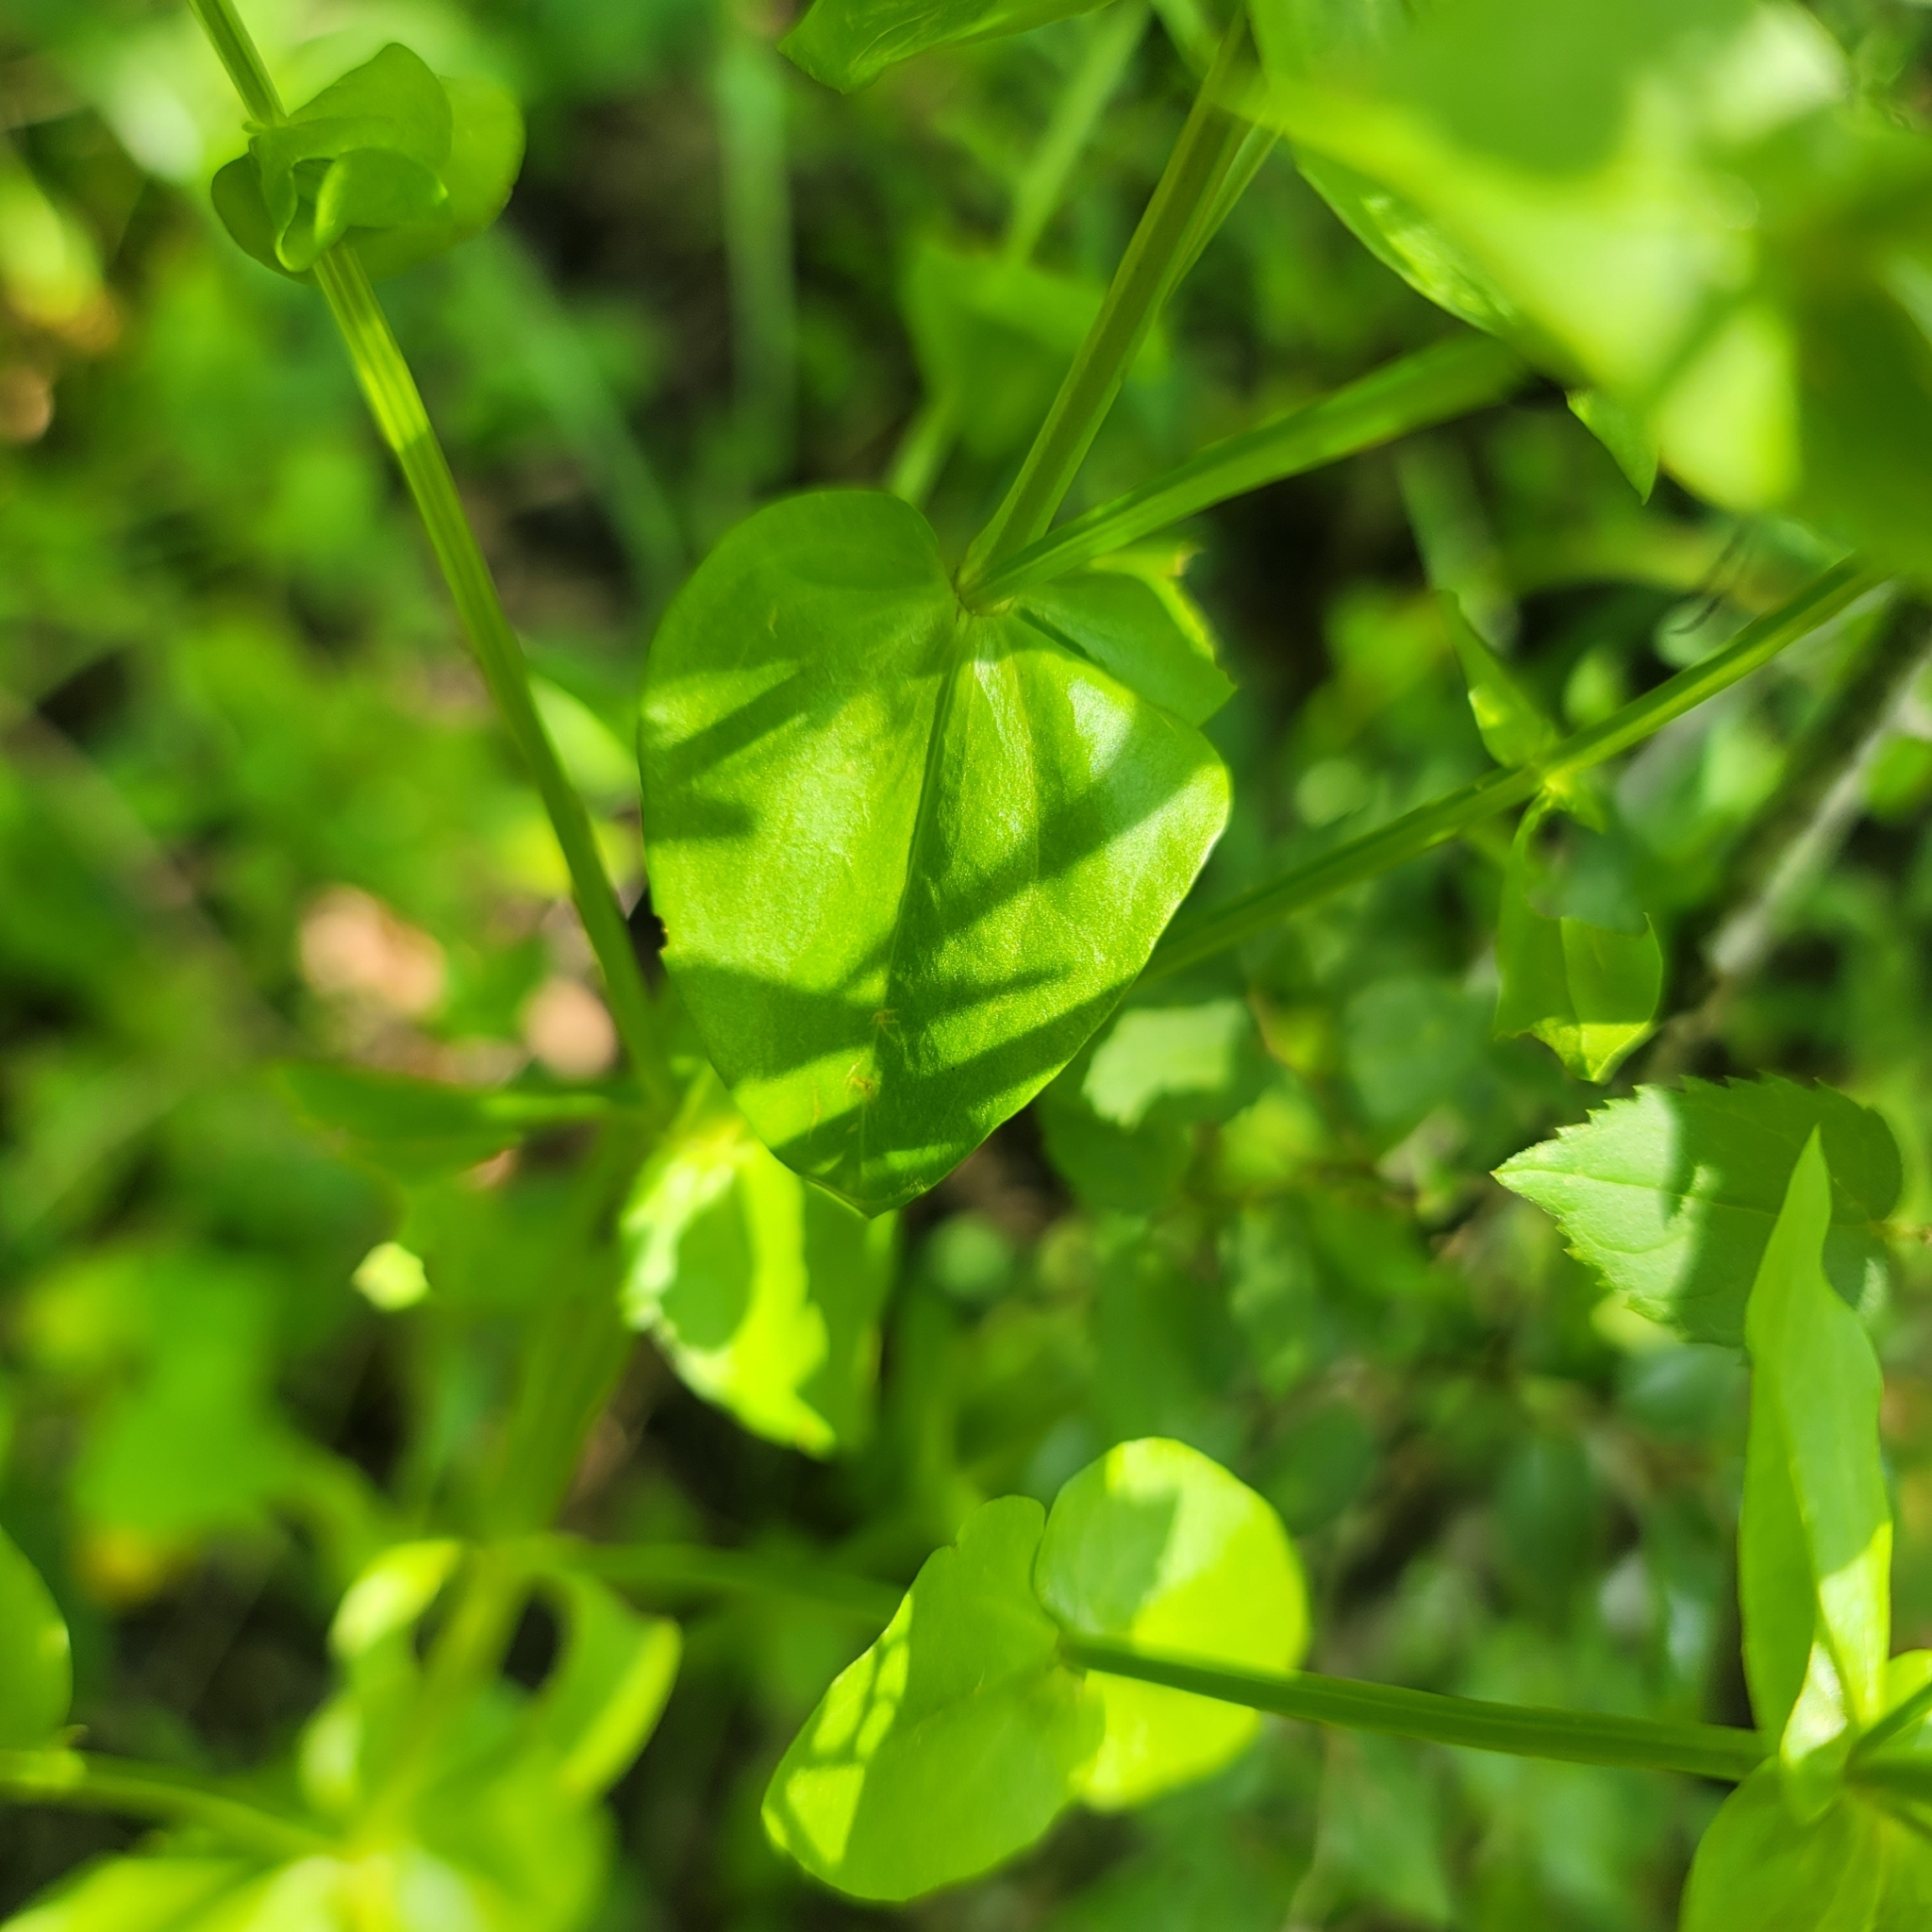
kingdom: Plantae
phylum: Tracheophyta
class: Magnoliopsida
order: Gentianales
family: Gentianaceae
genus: Sabatia
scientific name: Sabatia angularis
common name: Rose-pink
